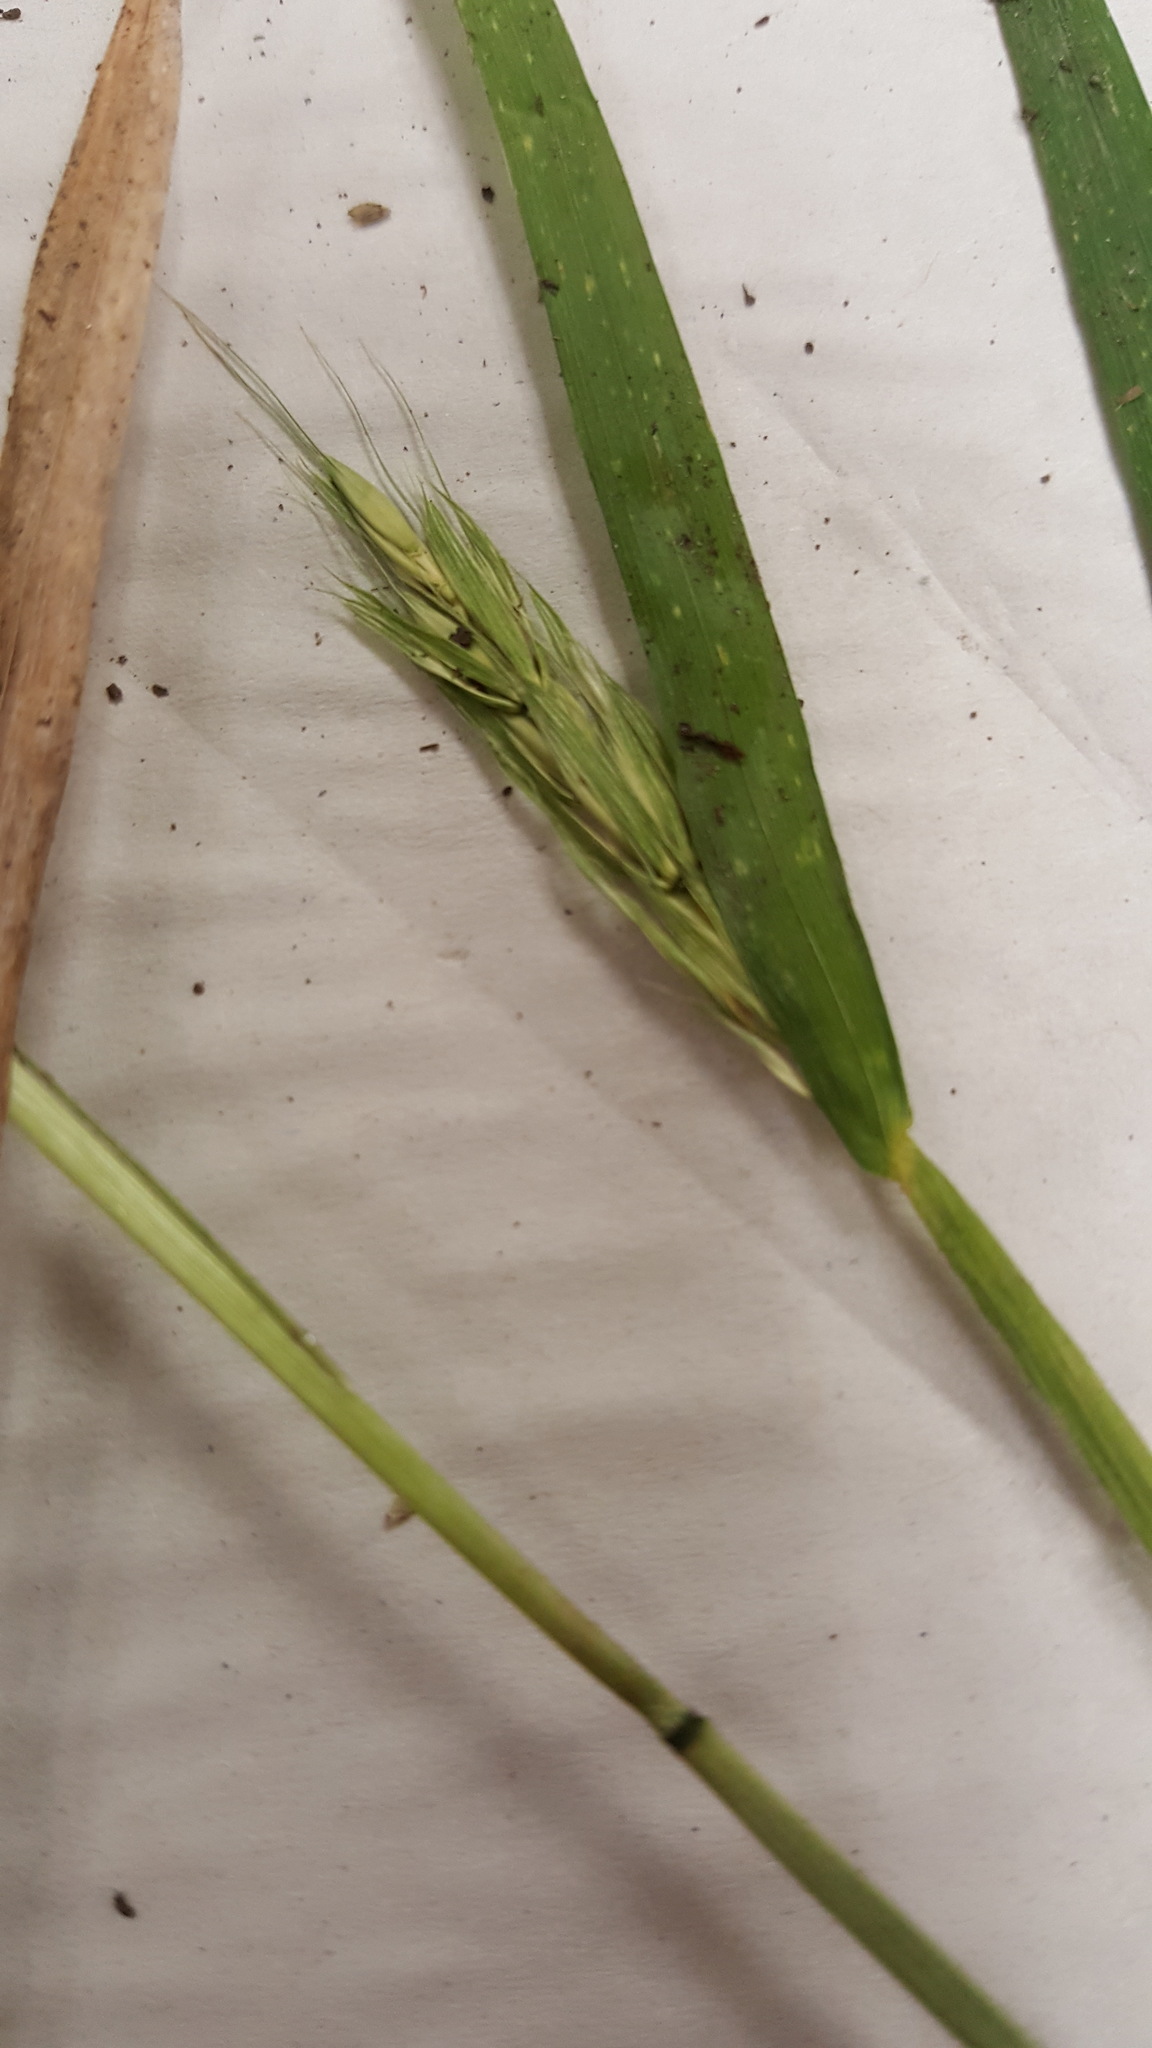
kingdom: Plantae
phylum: Tracheophyta
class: Liliopsida
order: Poales
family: Poaceae
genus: Elymus
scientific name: Elymus virginicus
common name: Common eastern wildrye
